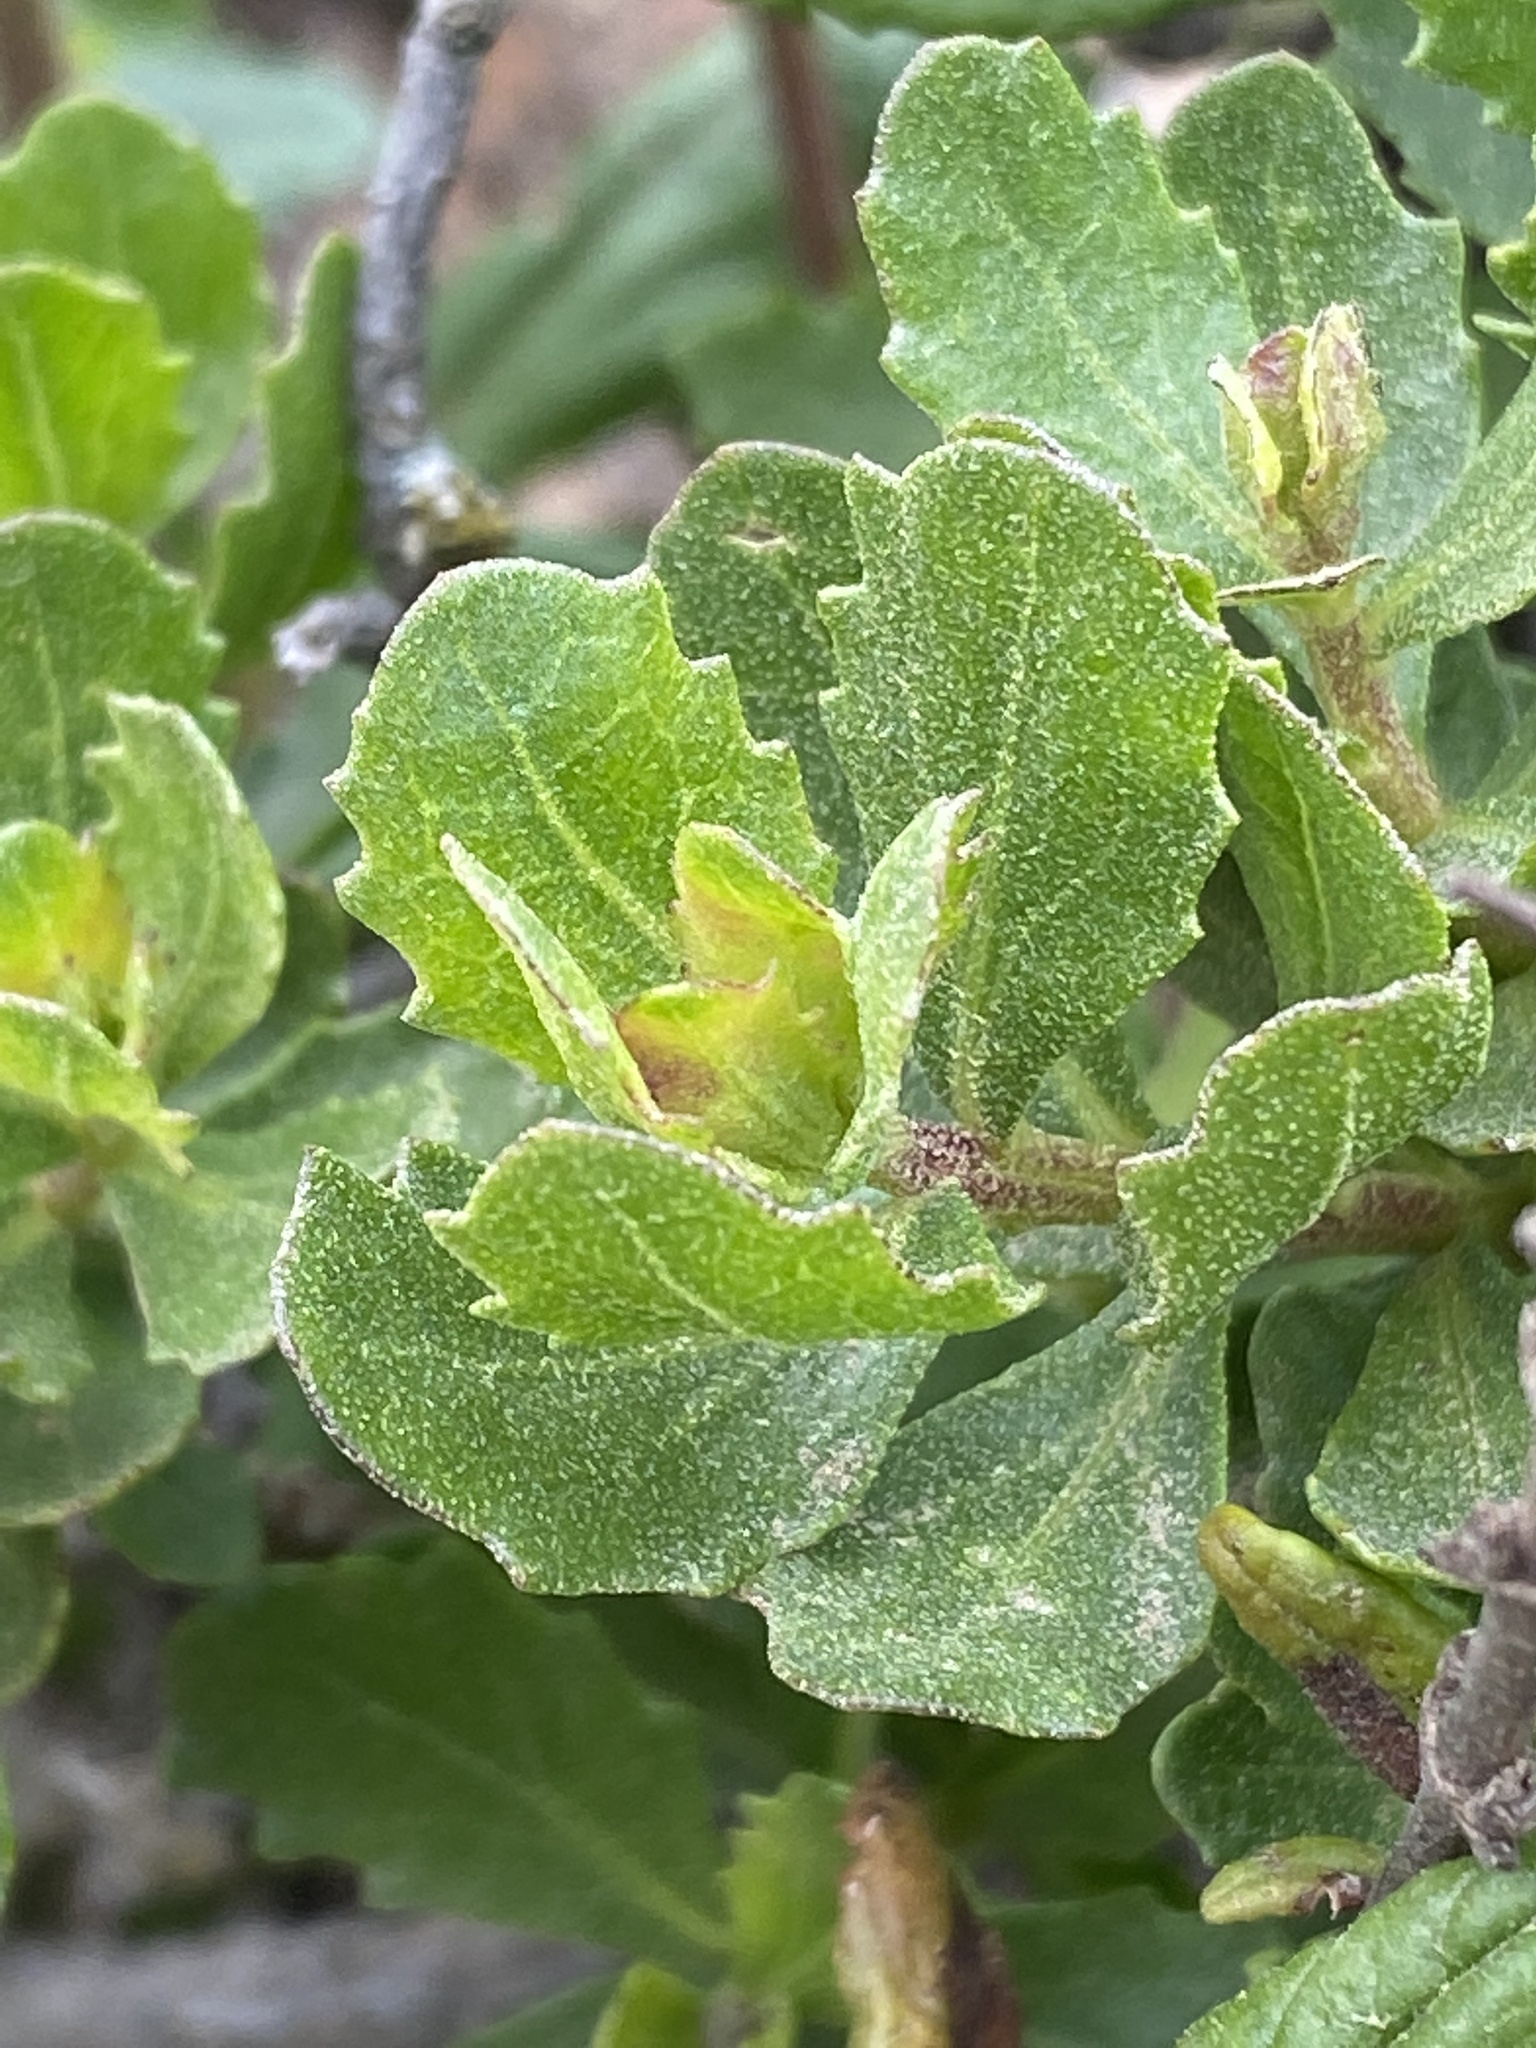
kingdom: Plantae
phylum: Tracheophyta
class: Magnoliopsida
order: Asterales
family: Asteraceae
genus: Baccharis
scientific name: Baccharis pilularis
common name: Coyotebrush
